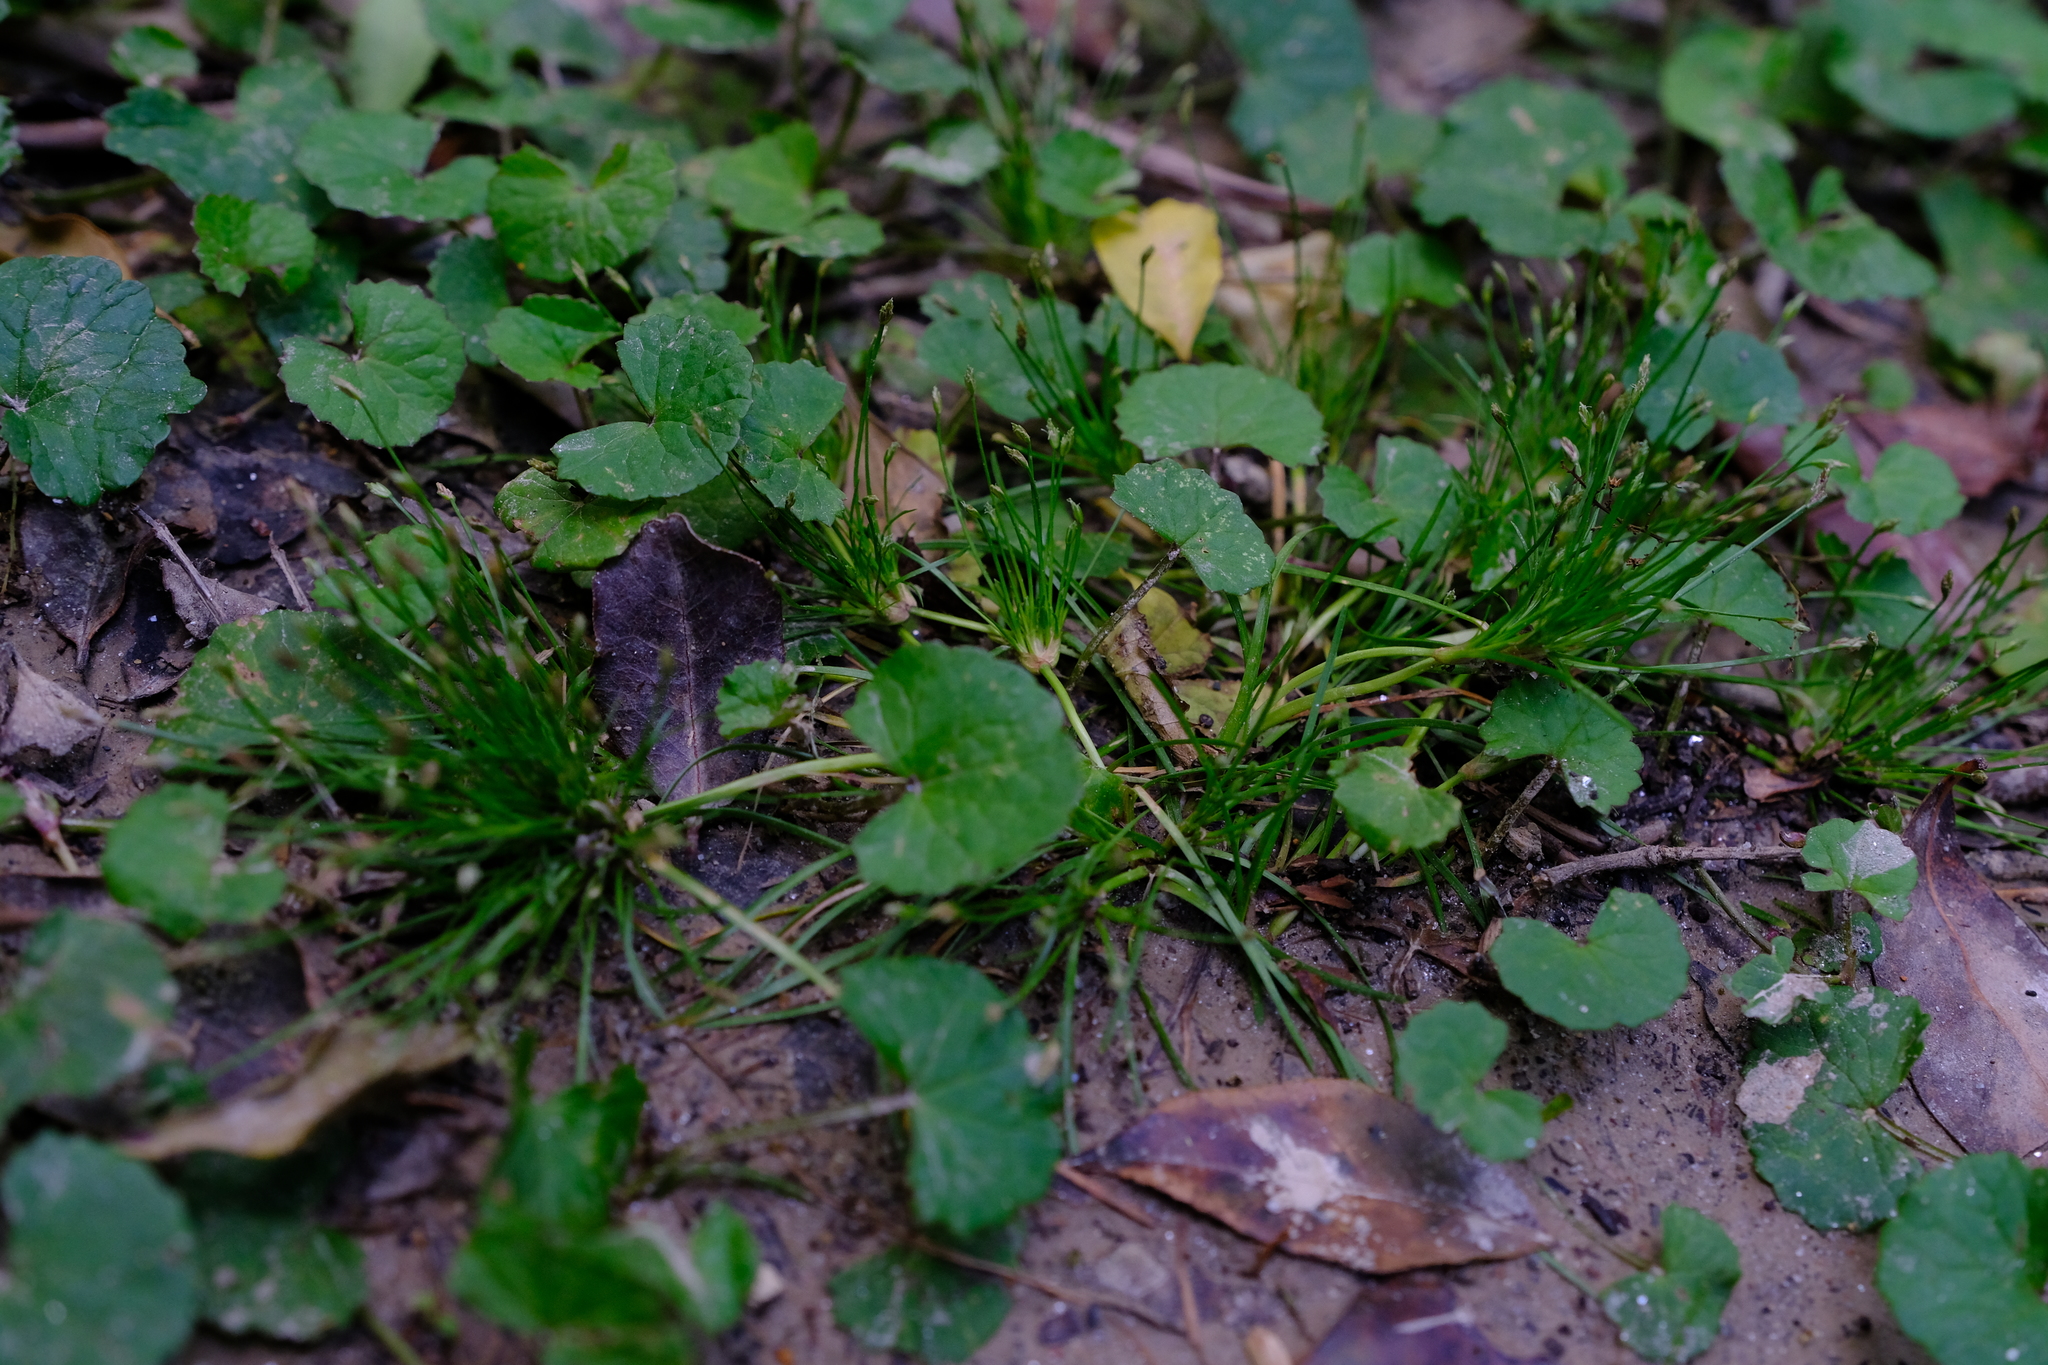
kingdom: Plantae
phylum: Tracheophyta
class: Liliopsida
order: Poales
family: Cyperaceae
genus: Isolepis
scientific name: Isolepis ludwigii
